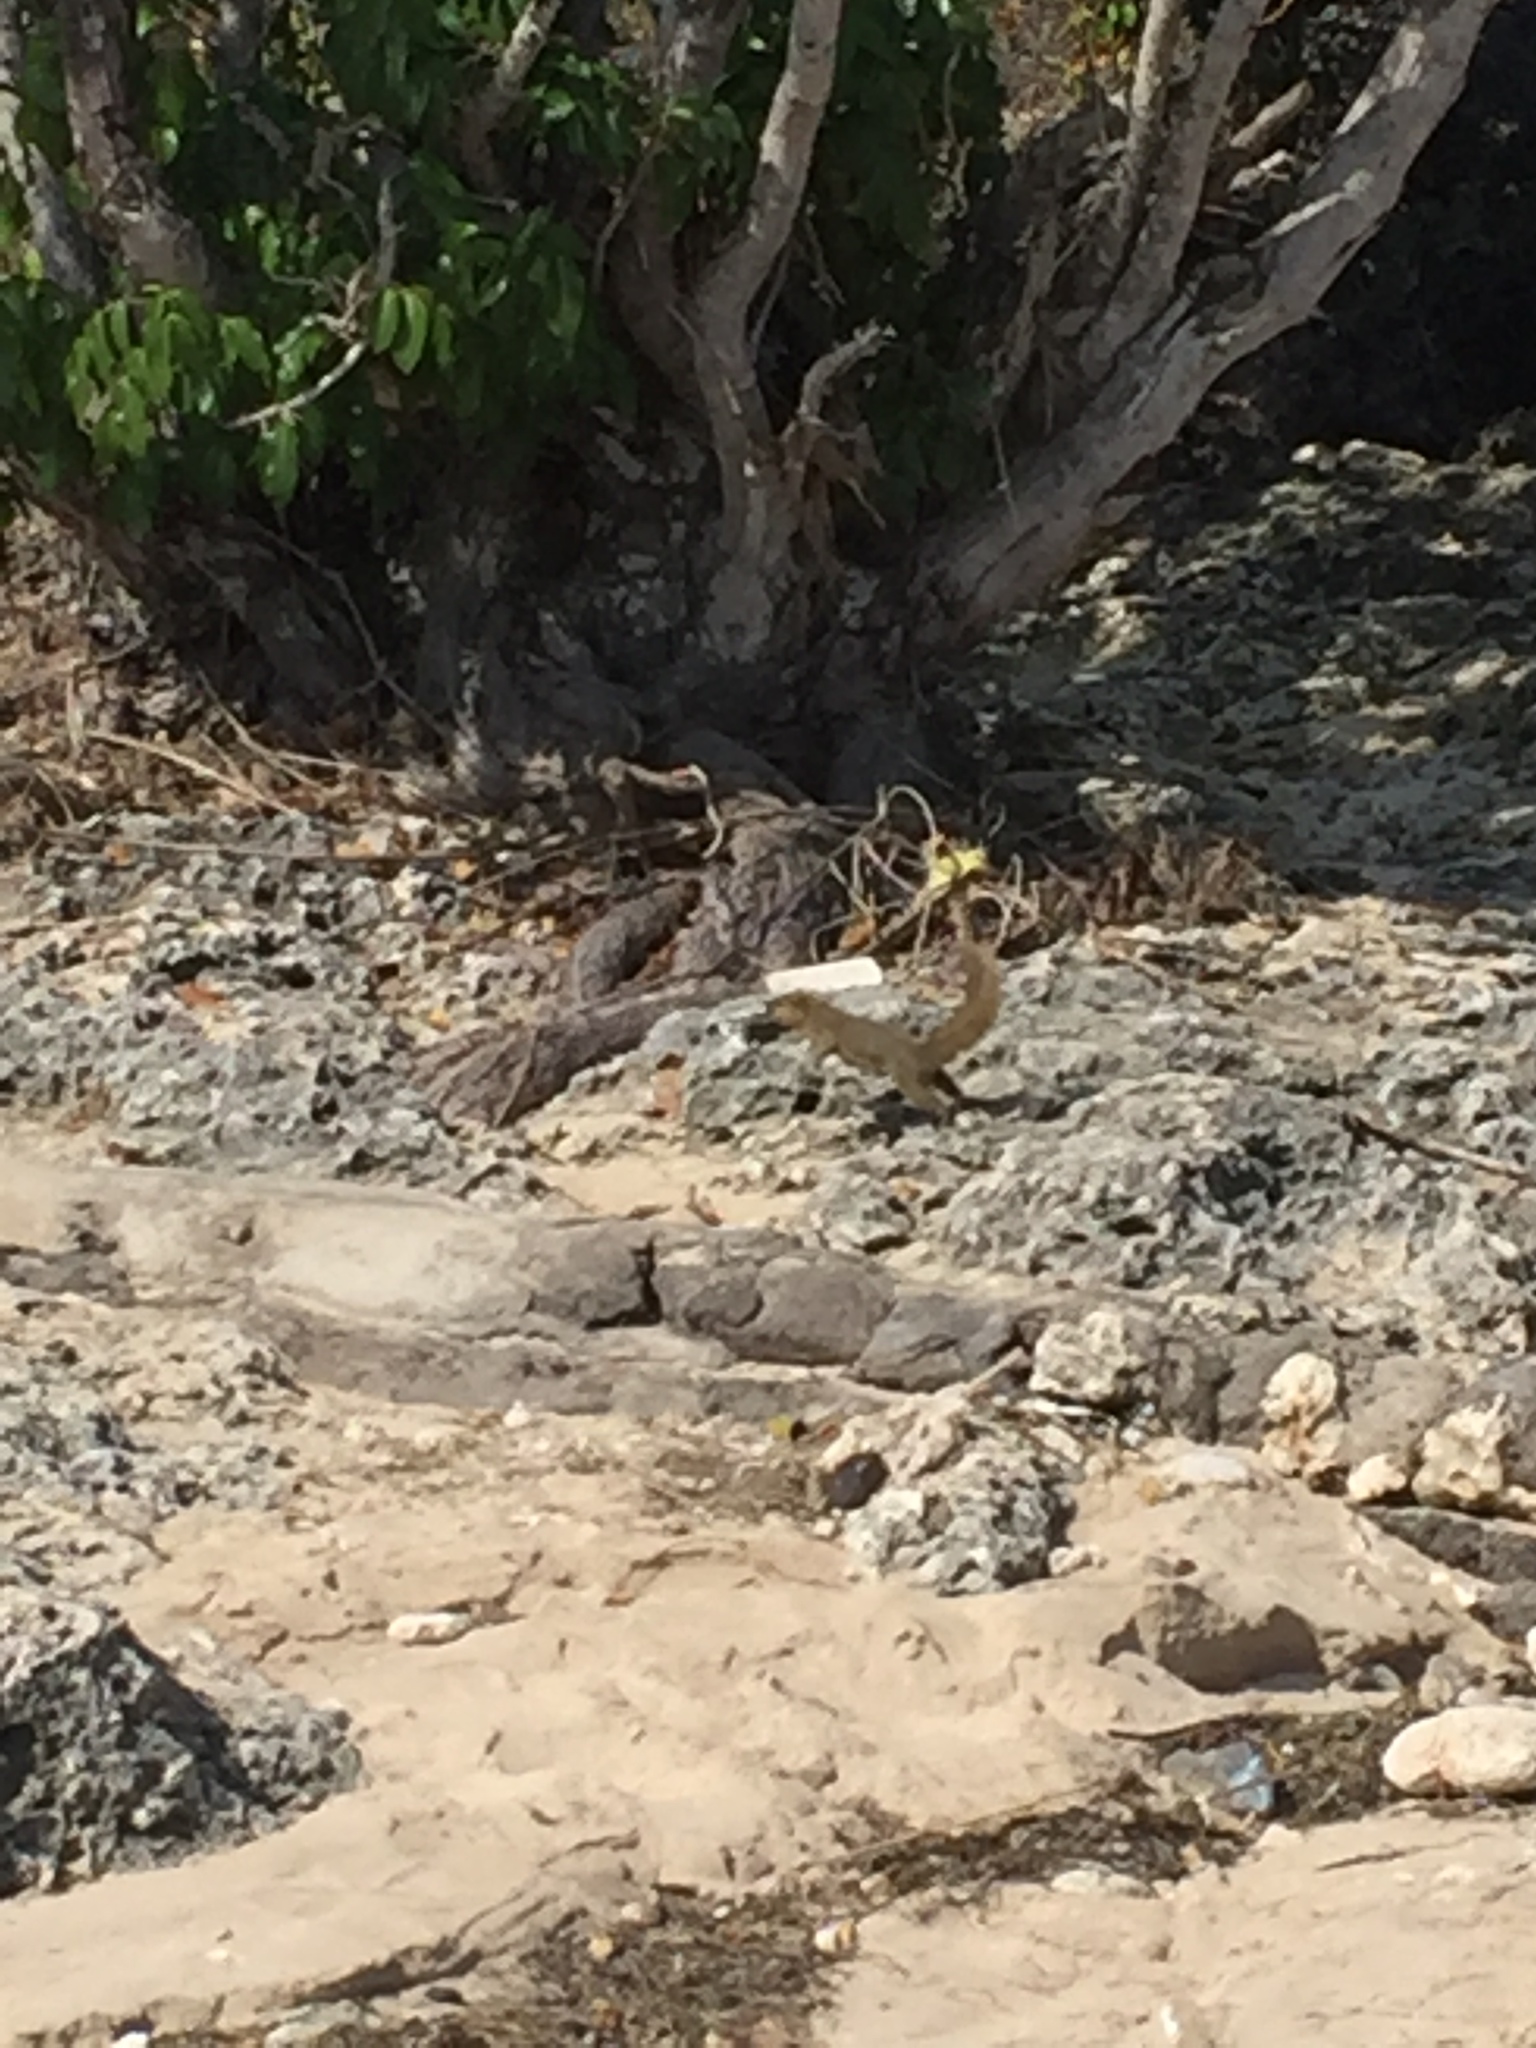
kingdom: Animalia
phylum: Chordata
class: Mammalia
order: Rodentia
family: Sciuridae
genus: Callosciurus
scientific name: Callosciurus notatus
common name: Plantain squirrel
